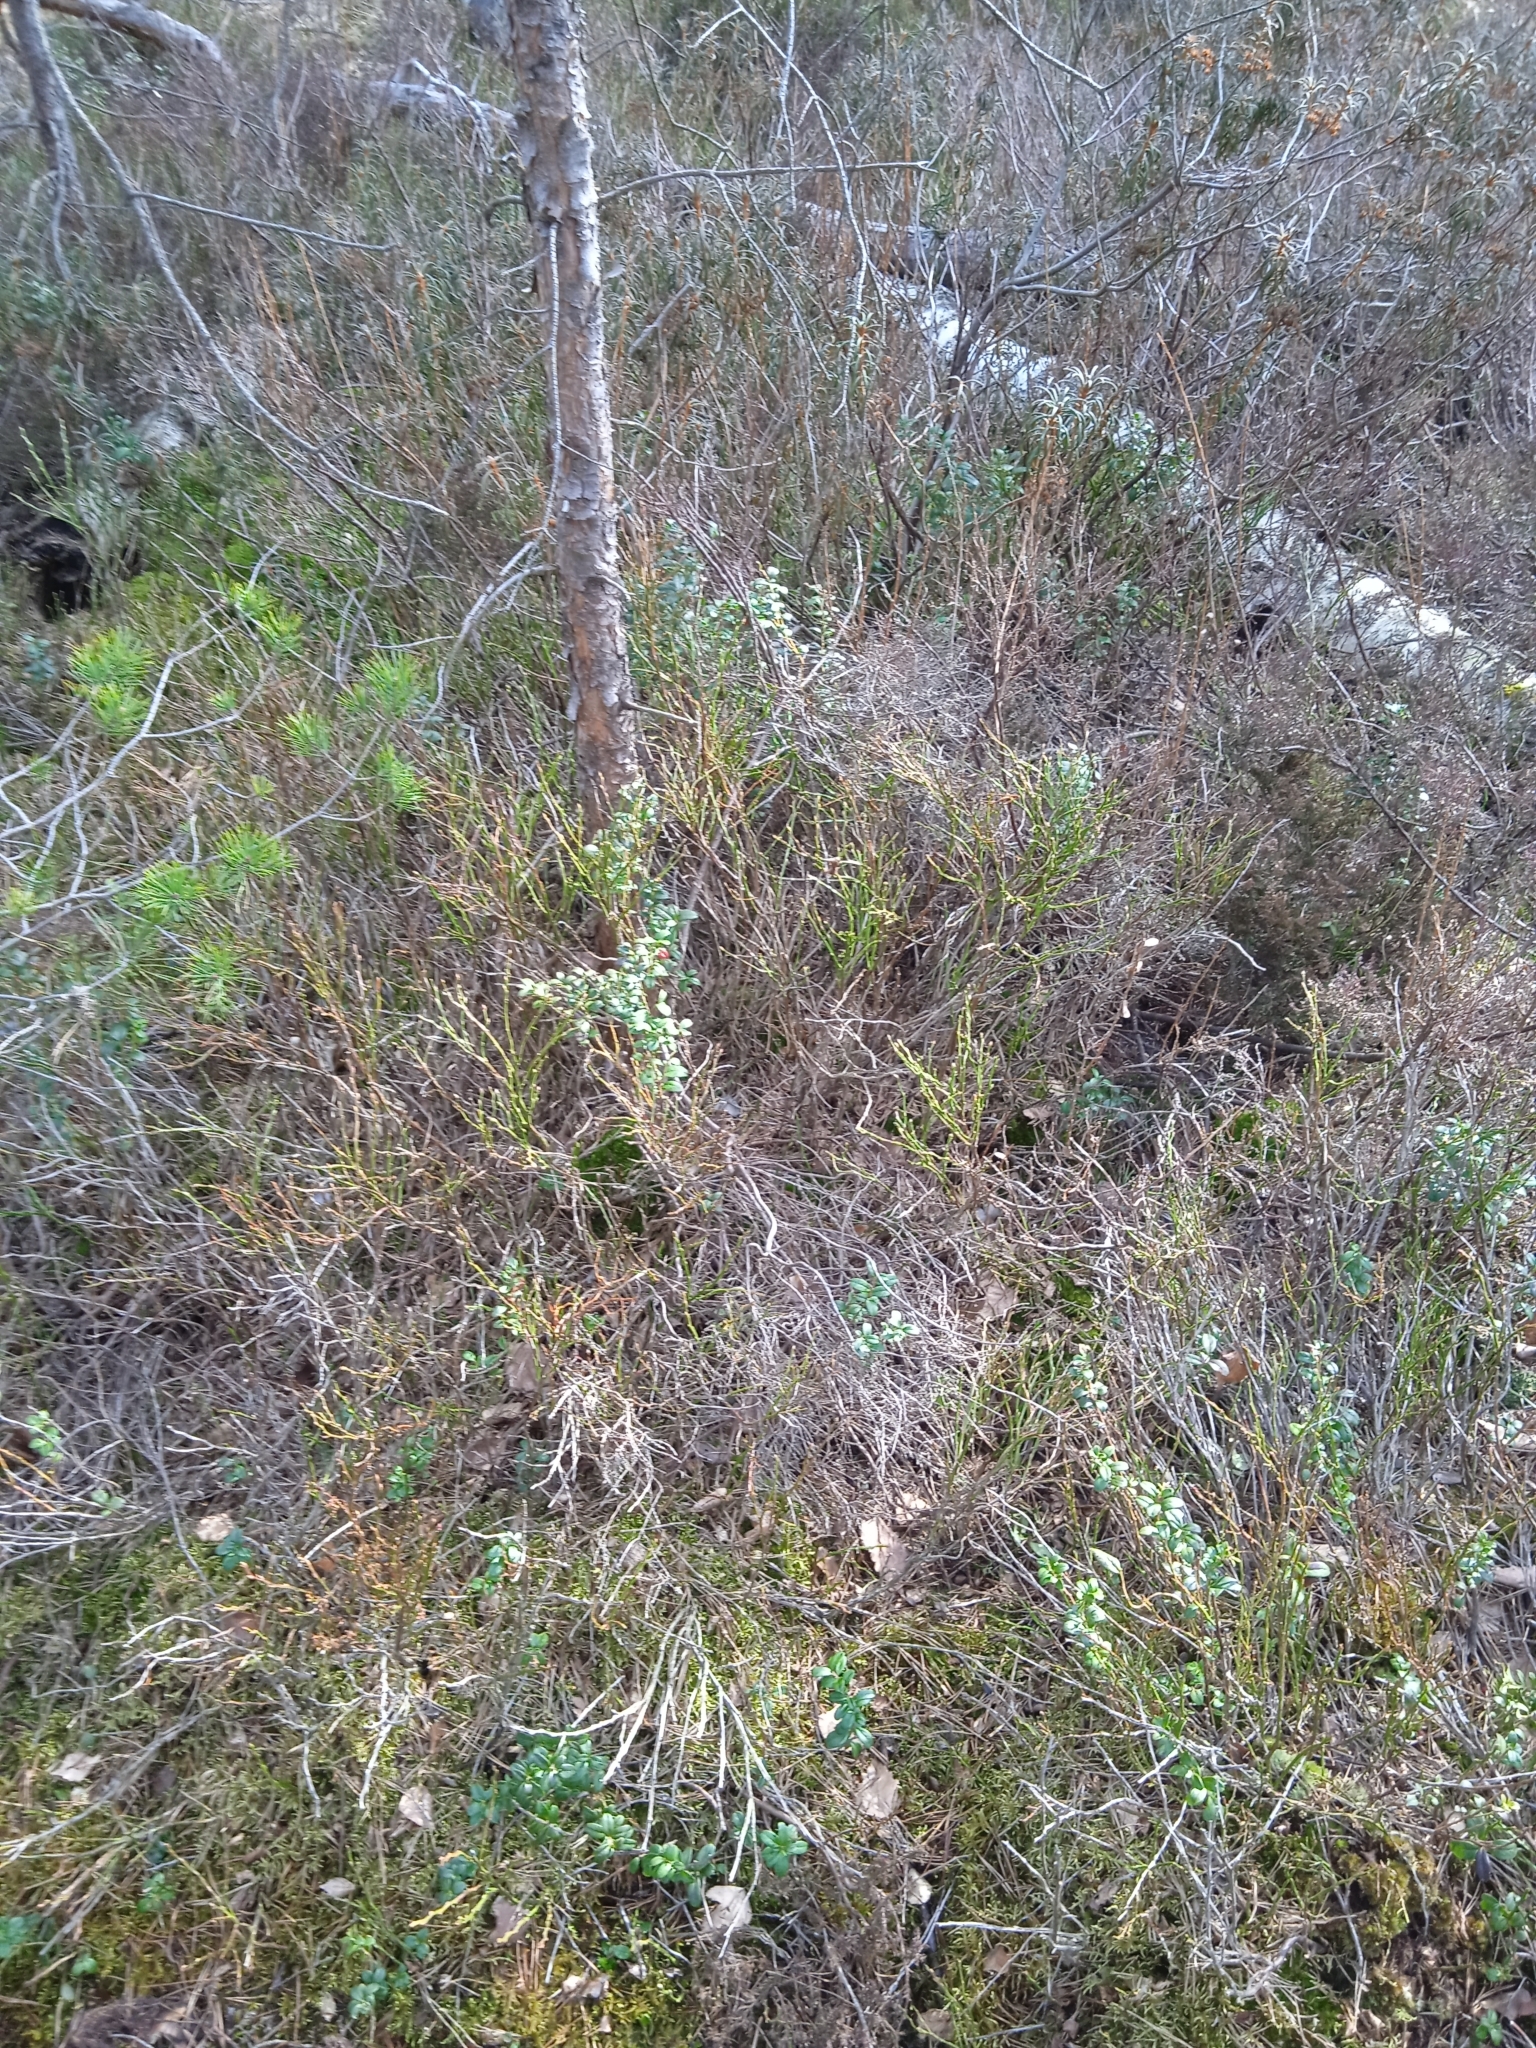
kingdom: Plantae
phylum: Tracheophyta
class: Magnoliopsida
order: Ericales
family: Ericaceae
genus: Vaccinium
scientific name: Vaccinium vitis-idaea
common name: Cowberry
